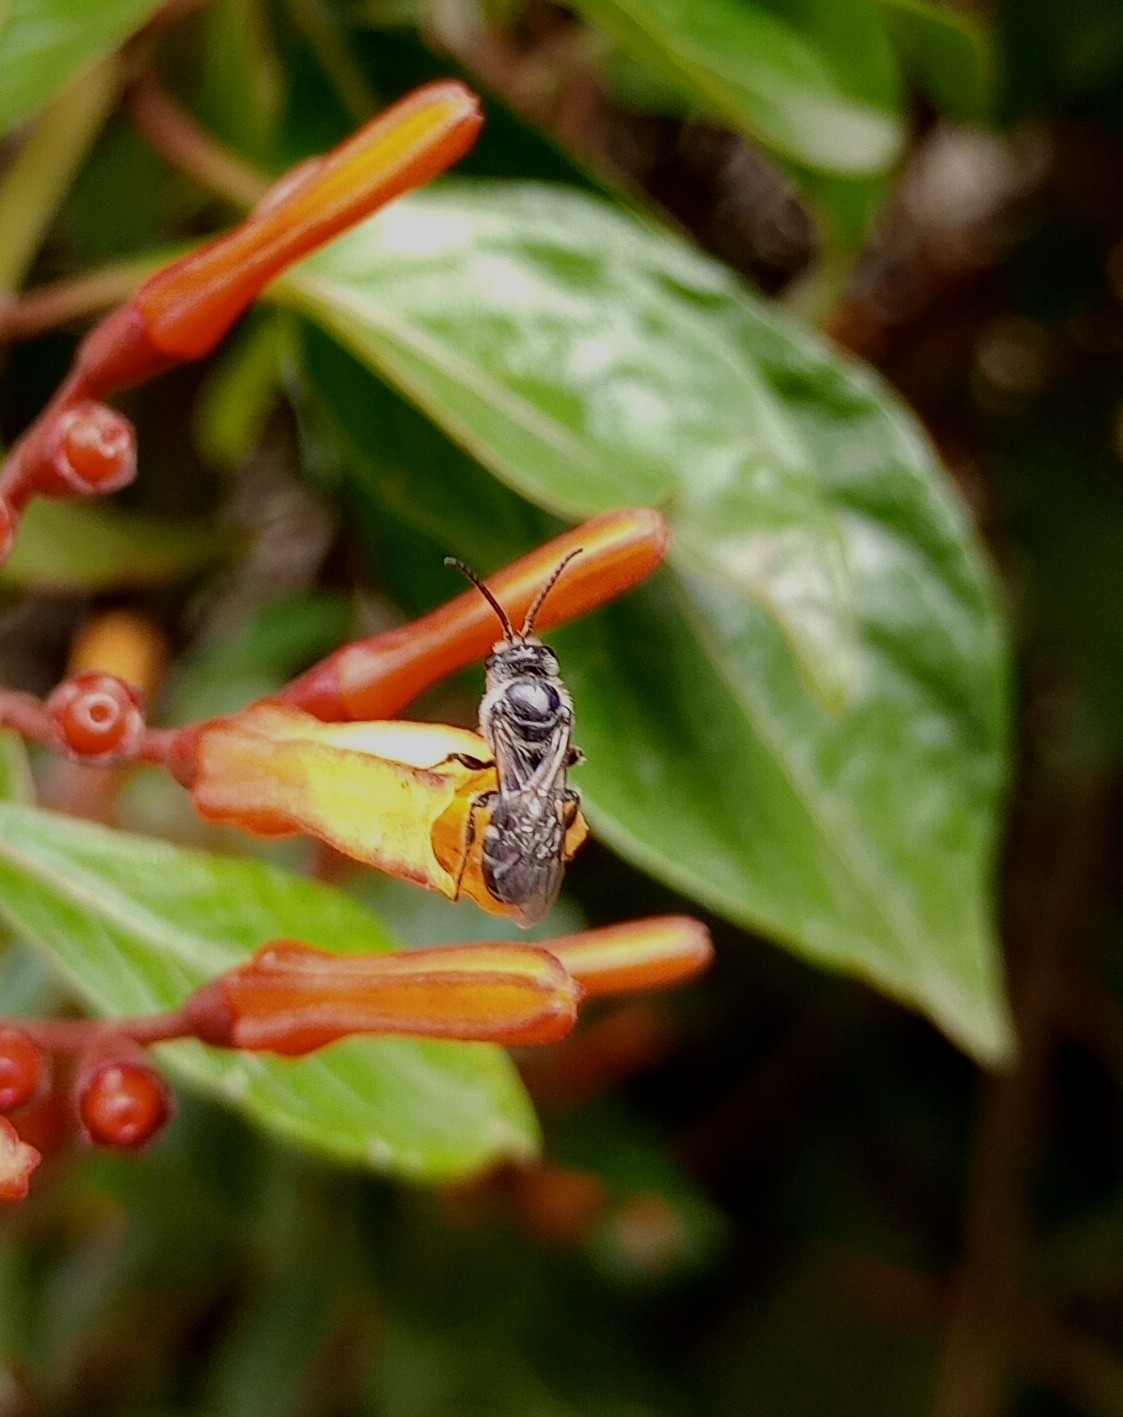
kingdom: Animalia
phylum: Arthropoda
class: Insecta
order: Hymenoptera
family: Halictidae
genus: Lasioglossum
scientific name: Lasioglossum albescens
